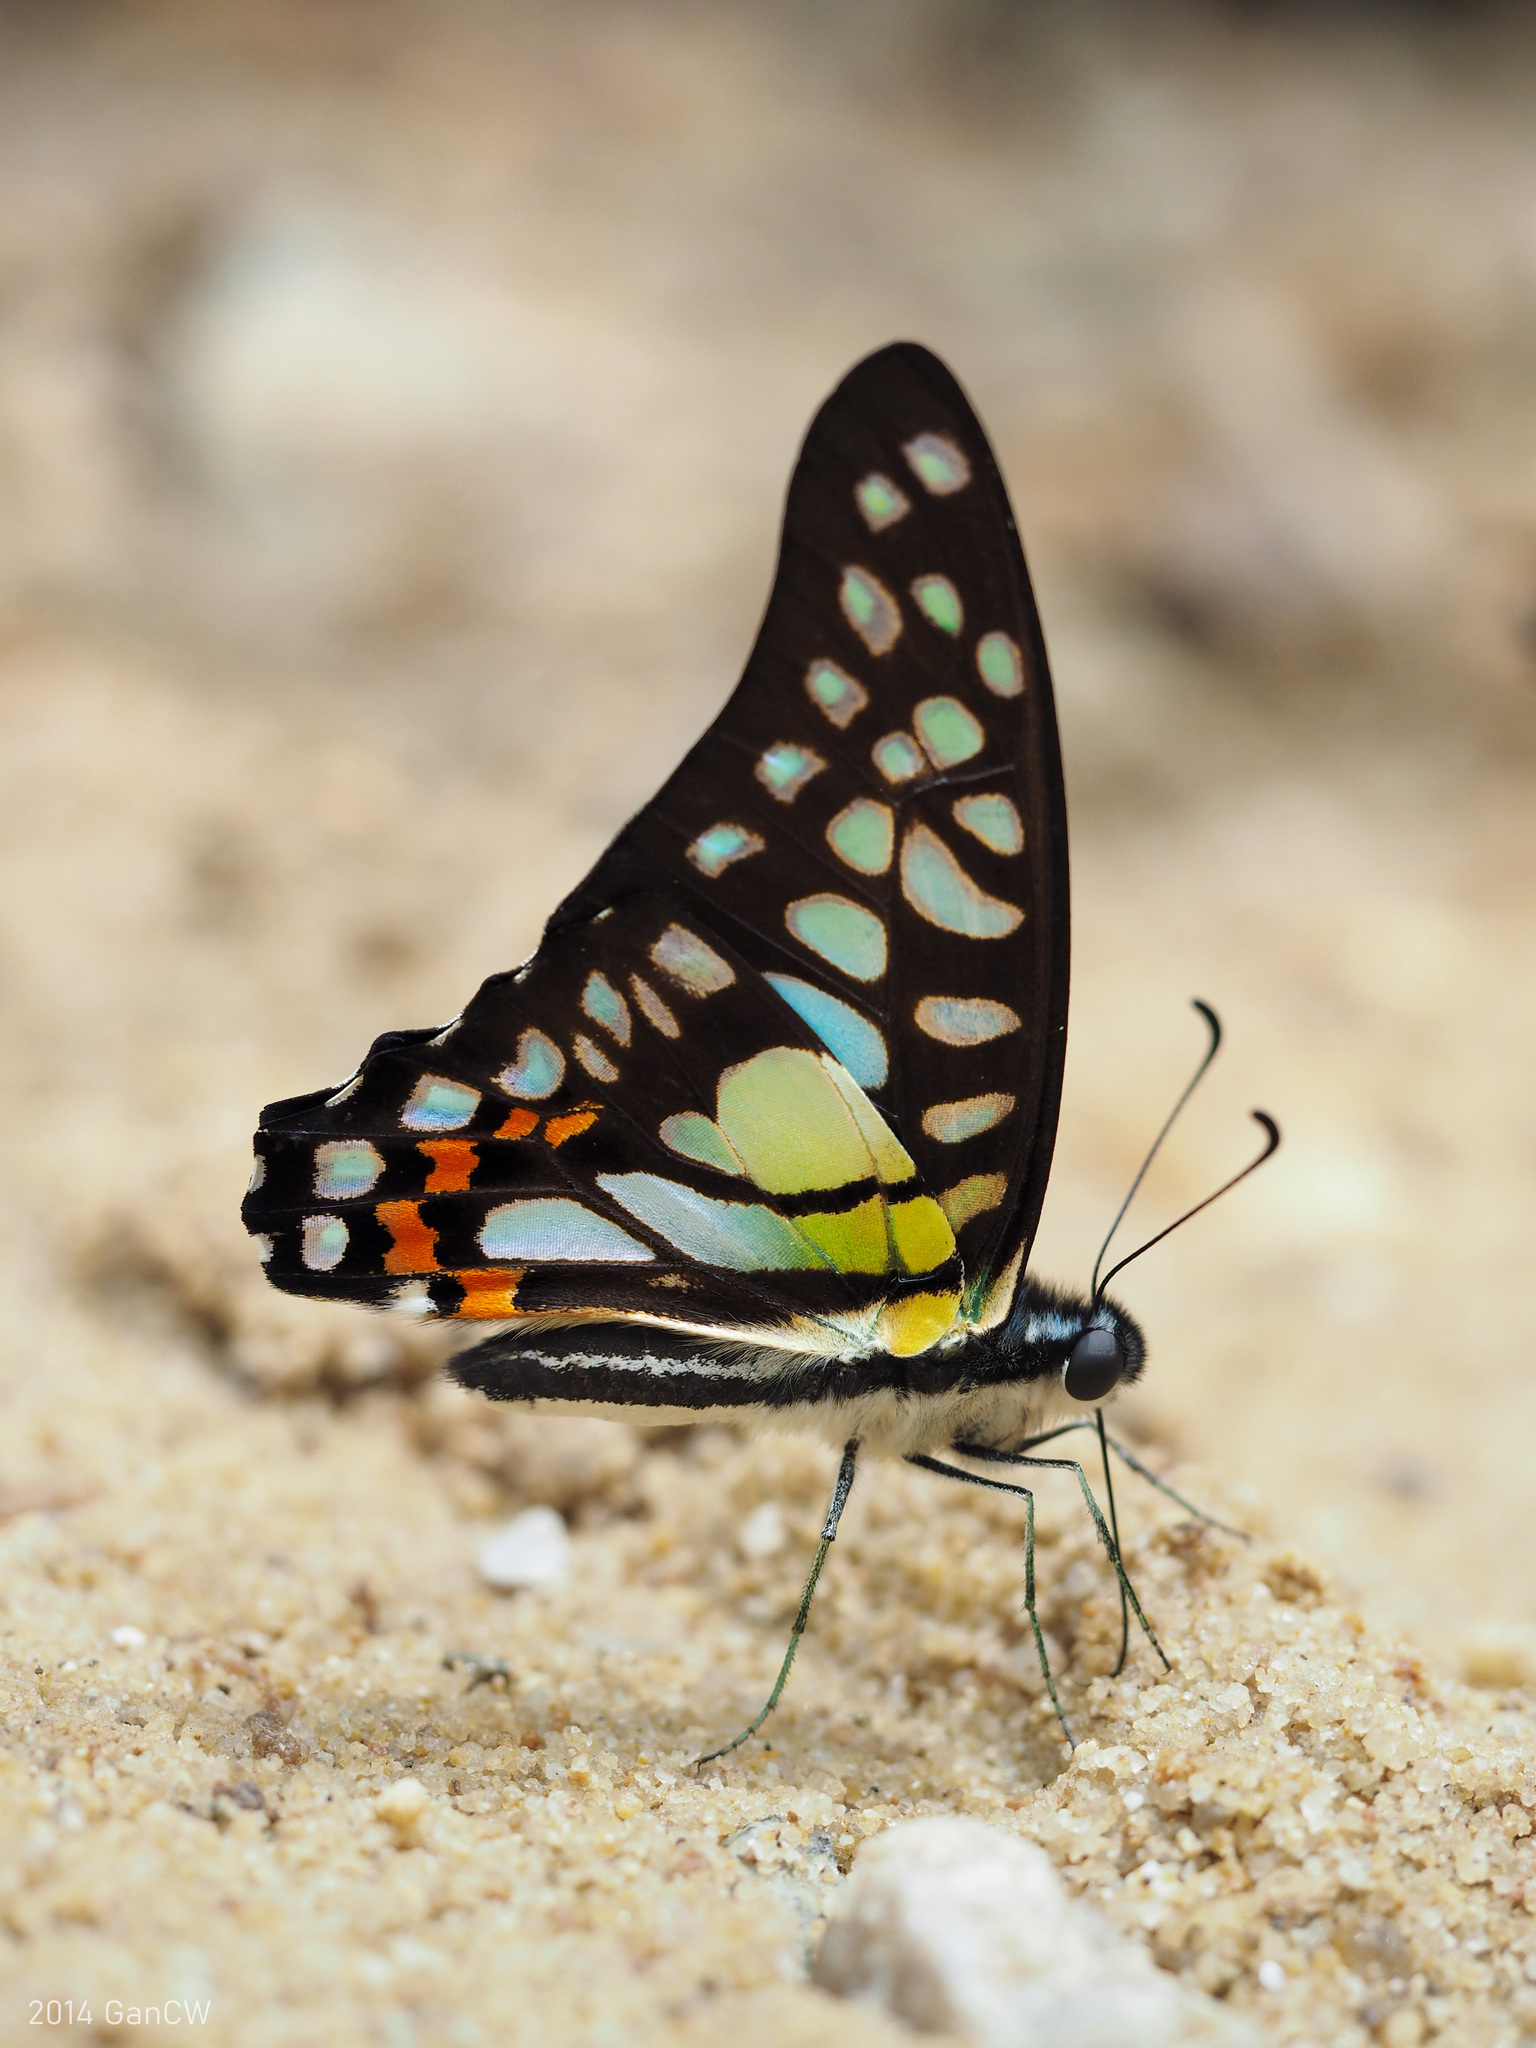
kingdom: Animalia
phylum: Arthropoda
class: Insecta
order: Lepidoptera
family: Papilionidae
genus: Graphium
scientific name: Graphium bathycles
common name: Veined jay
